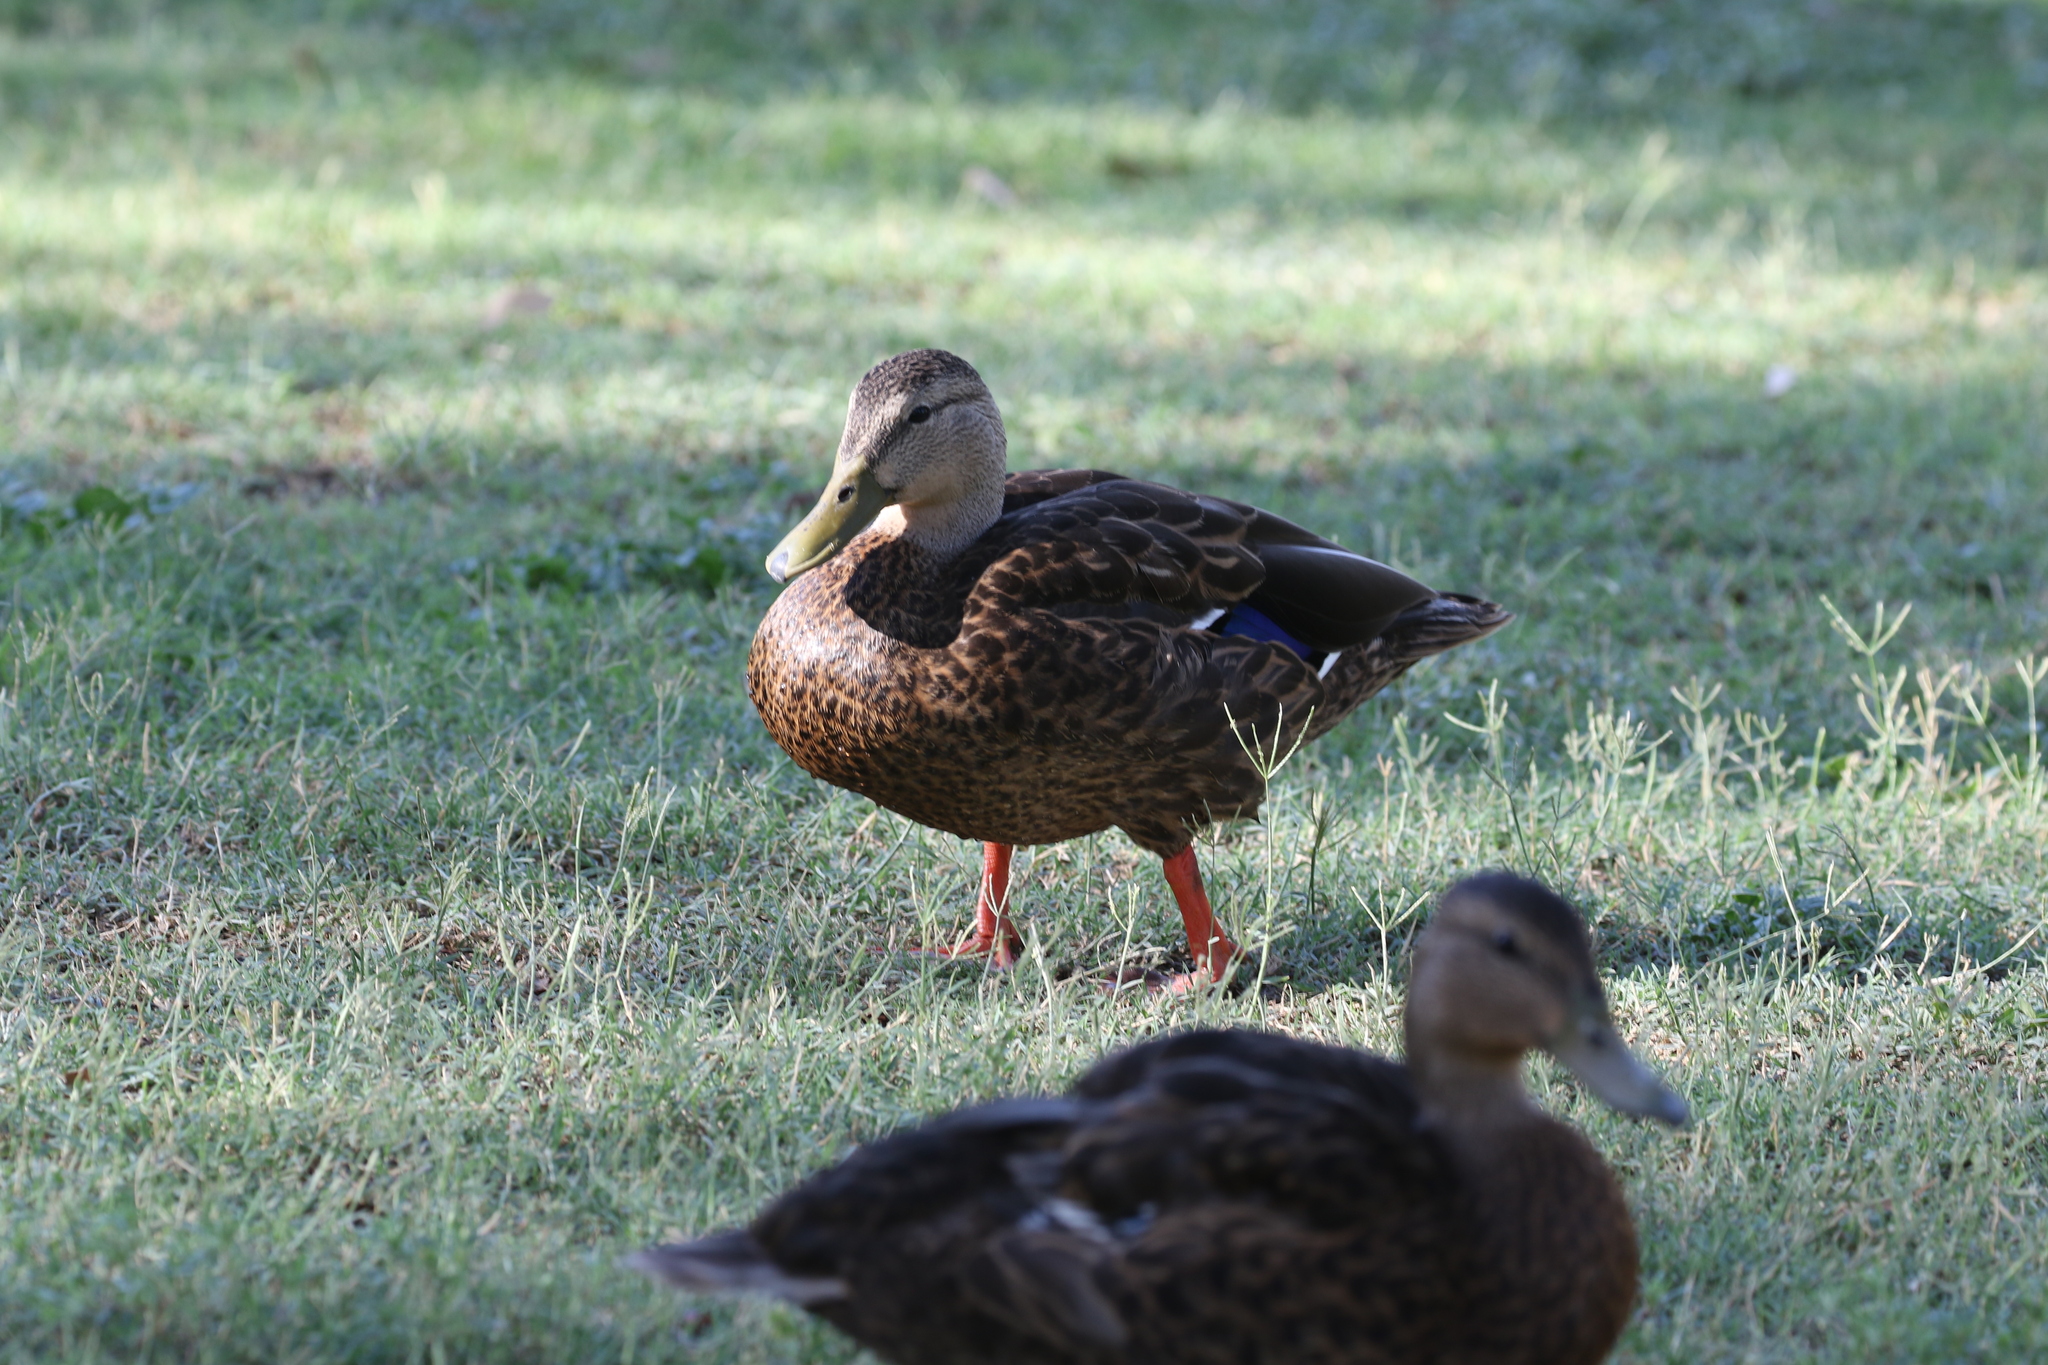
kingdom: Animalia
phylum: Chordata
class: Aves
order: Anseriformes
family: Anatidae
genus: Anas
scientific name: Anas diazi
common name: Mexican duck
